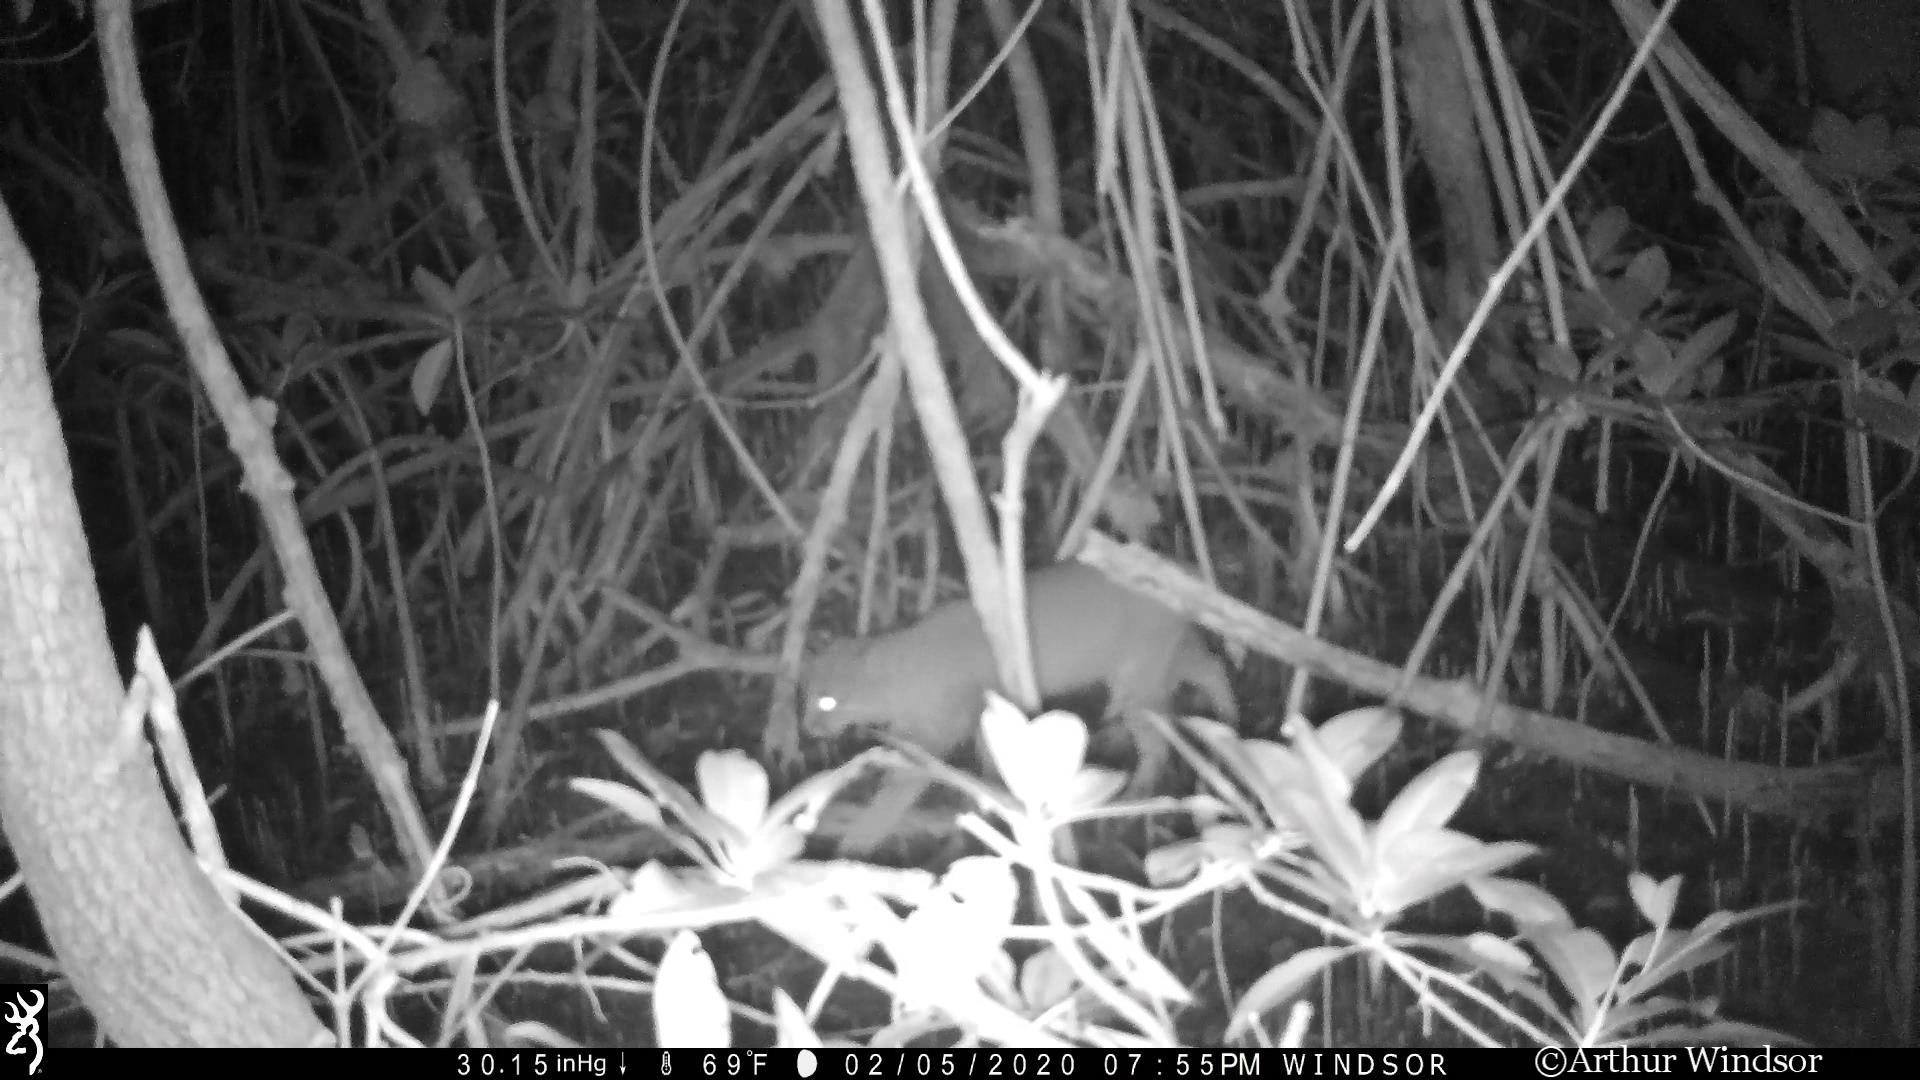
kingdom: Animalia
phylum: Chordata
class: Mammalia
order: Carnivora
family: Felidae
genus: Lynx
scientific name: Lynx rufus
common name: Bobcat
